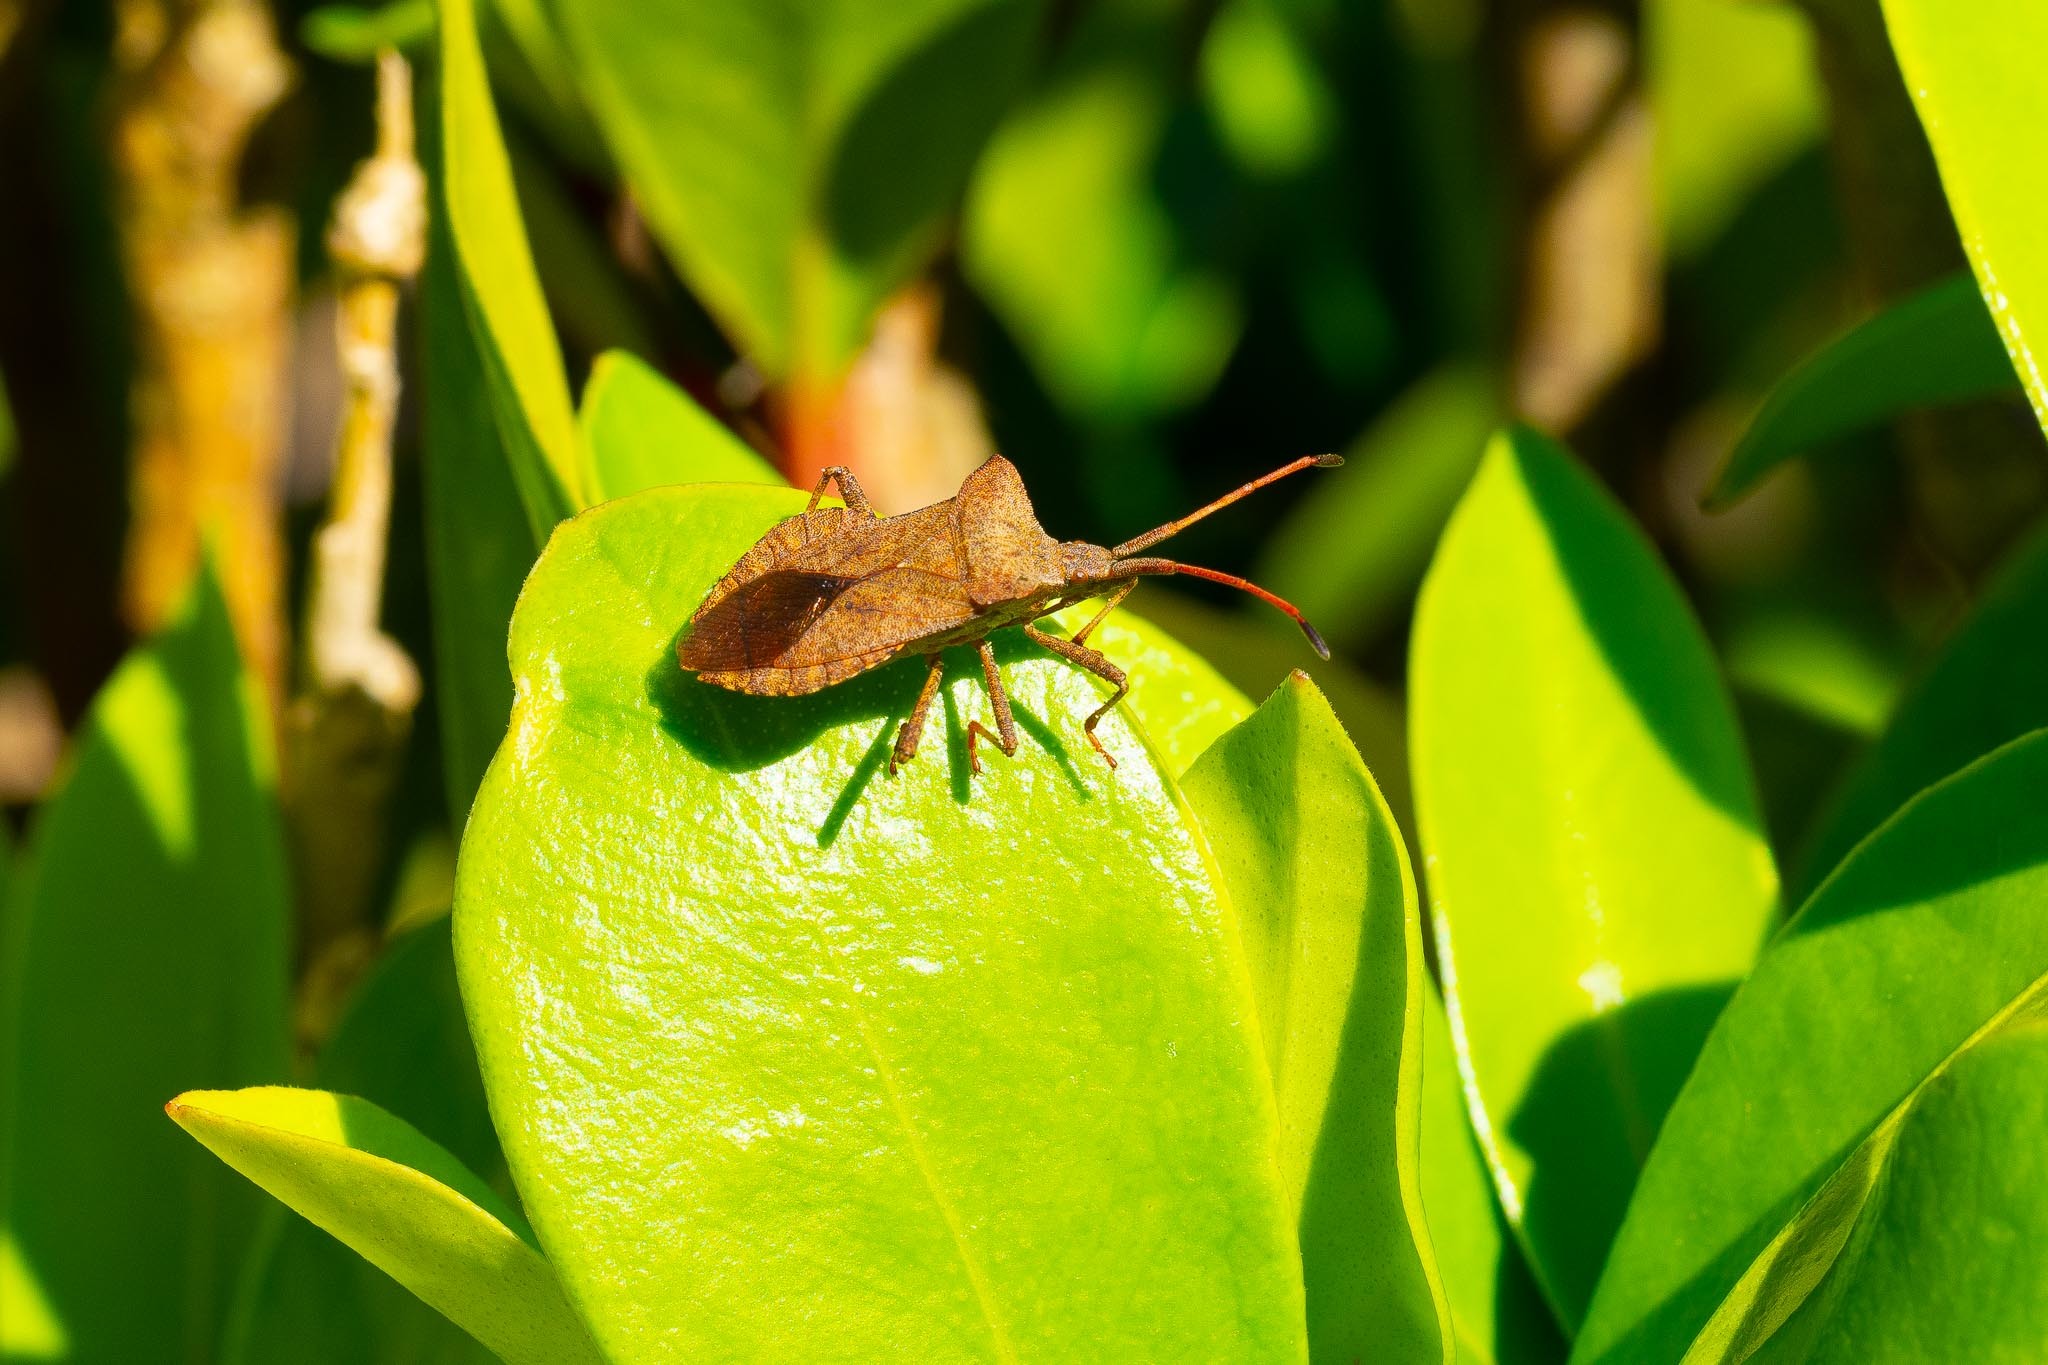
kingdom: Animalia
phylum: Arthropoda
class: Insecta
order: Hemiptera
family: Coreidae
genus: Coreus
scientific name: Coreus marginatus
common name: Dock bug
